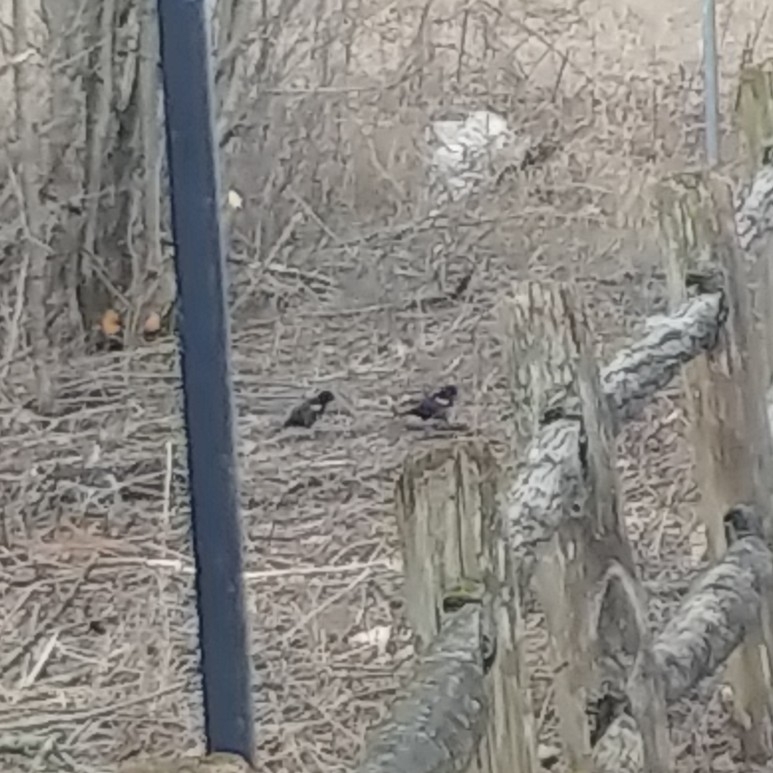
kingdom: Animalia
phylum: Chordata
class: Aves
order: Passeriformes
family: Icteridae
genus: Agelaius
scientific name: Agelaius phoeniceus
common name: Red-winged blackbird
